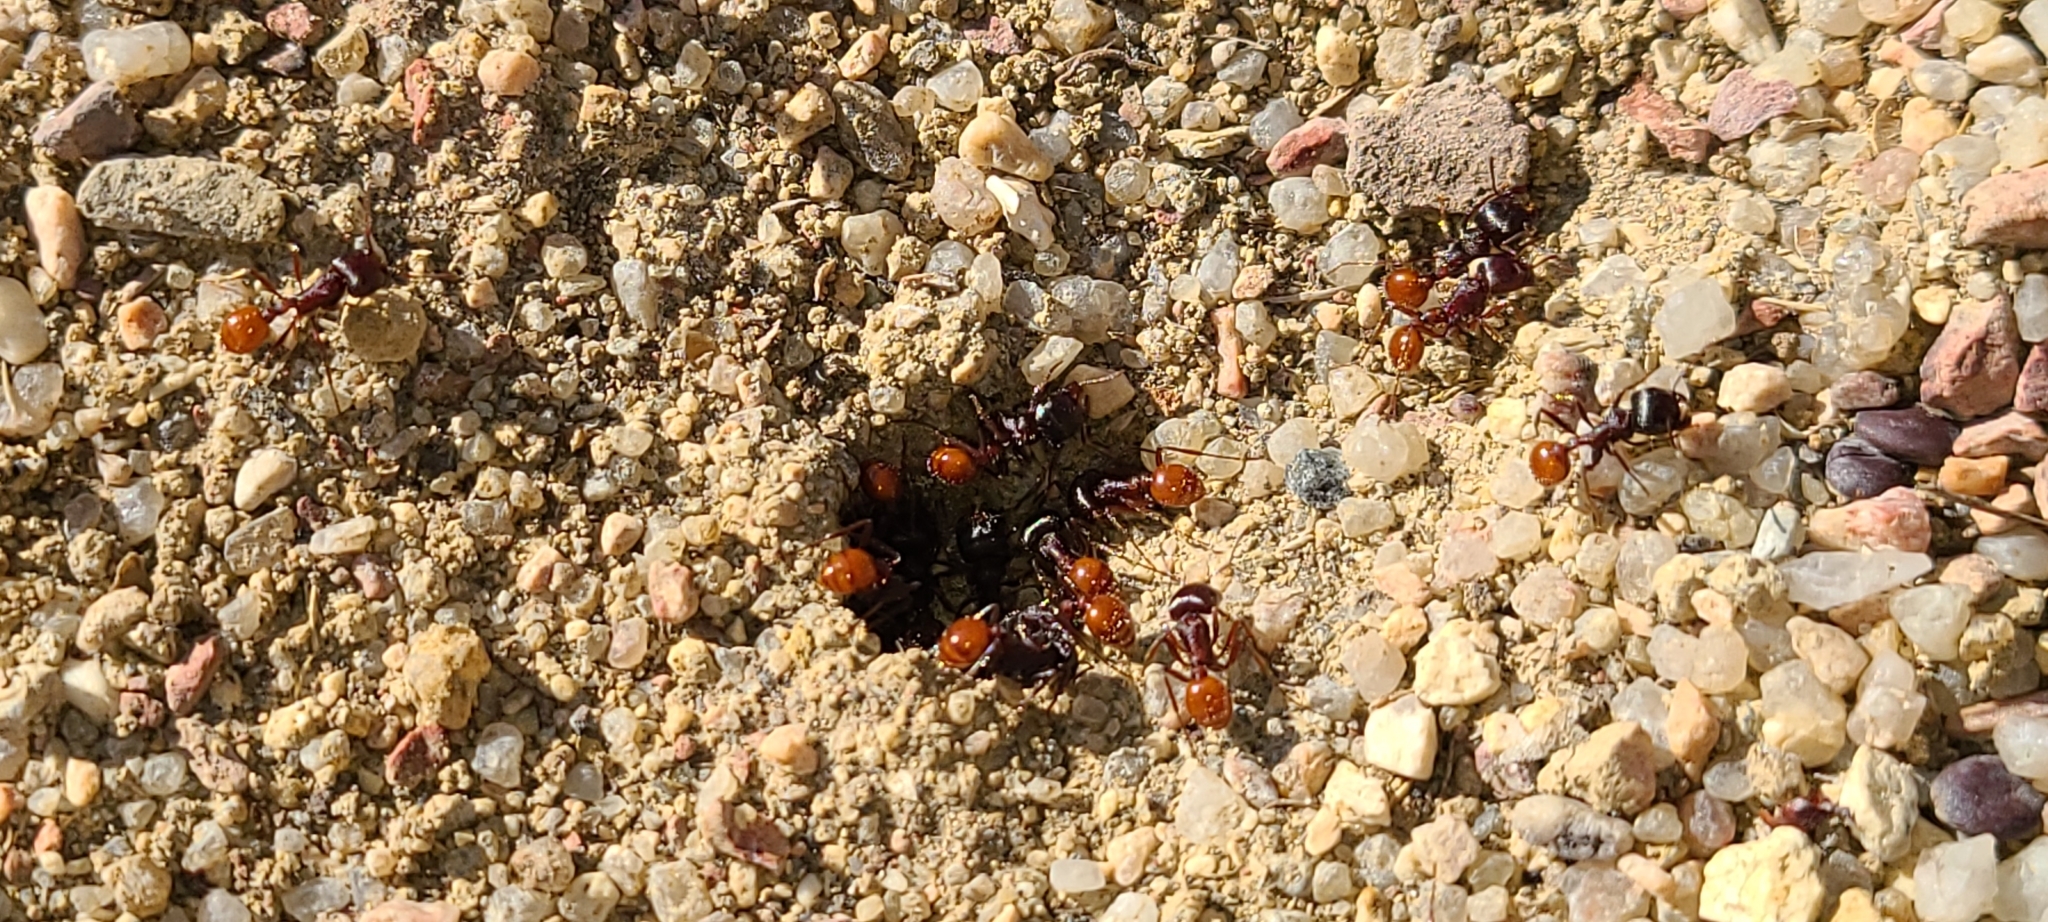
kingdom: Animalia
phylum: Arthropoda
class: Insecta
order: Hymenoptera
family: Formicidae
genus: Pogonomyrmex
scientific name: Pogonomyrmex rugosus
